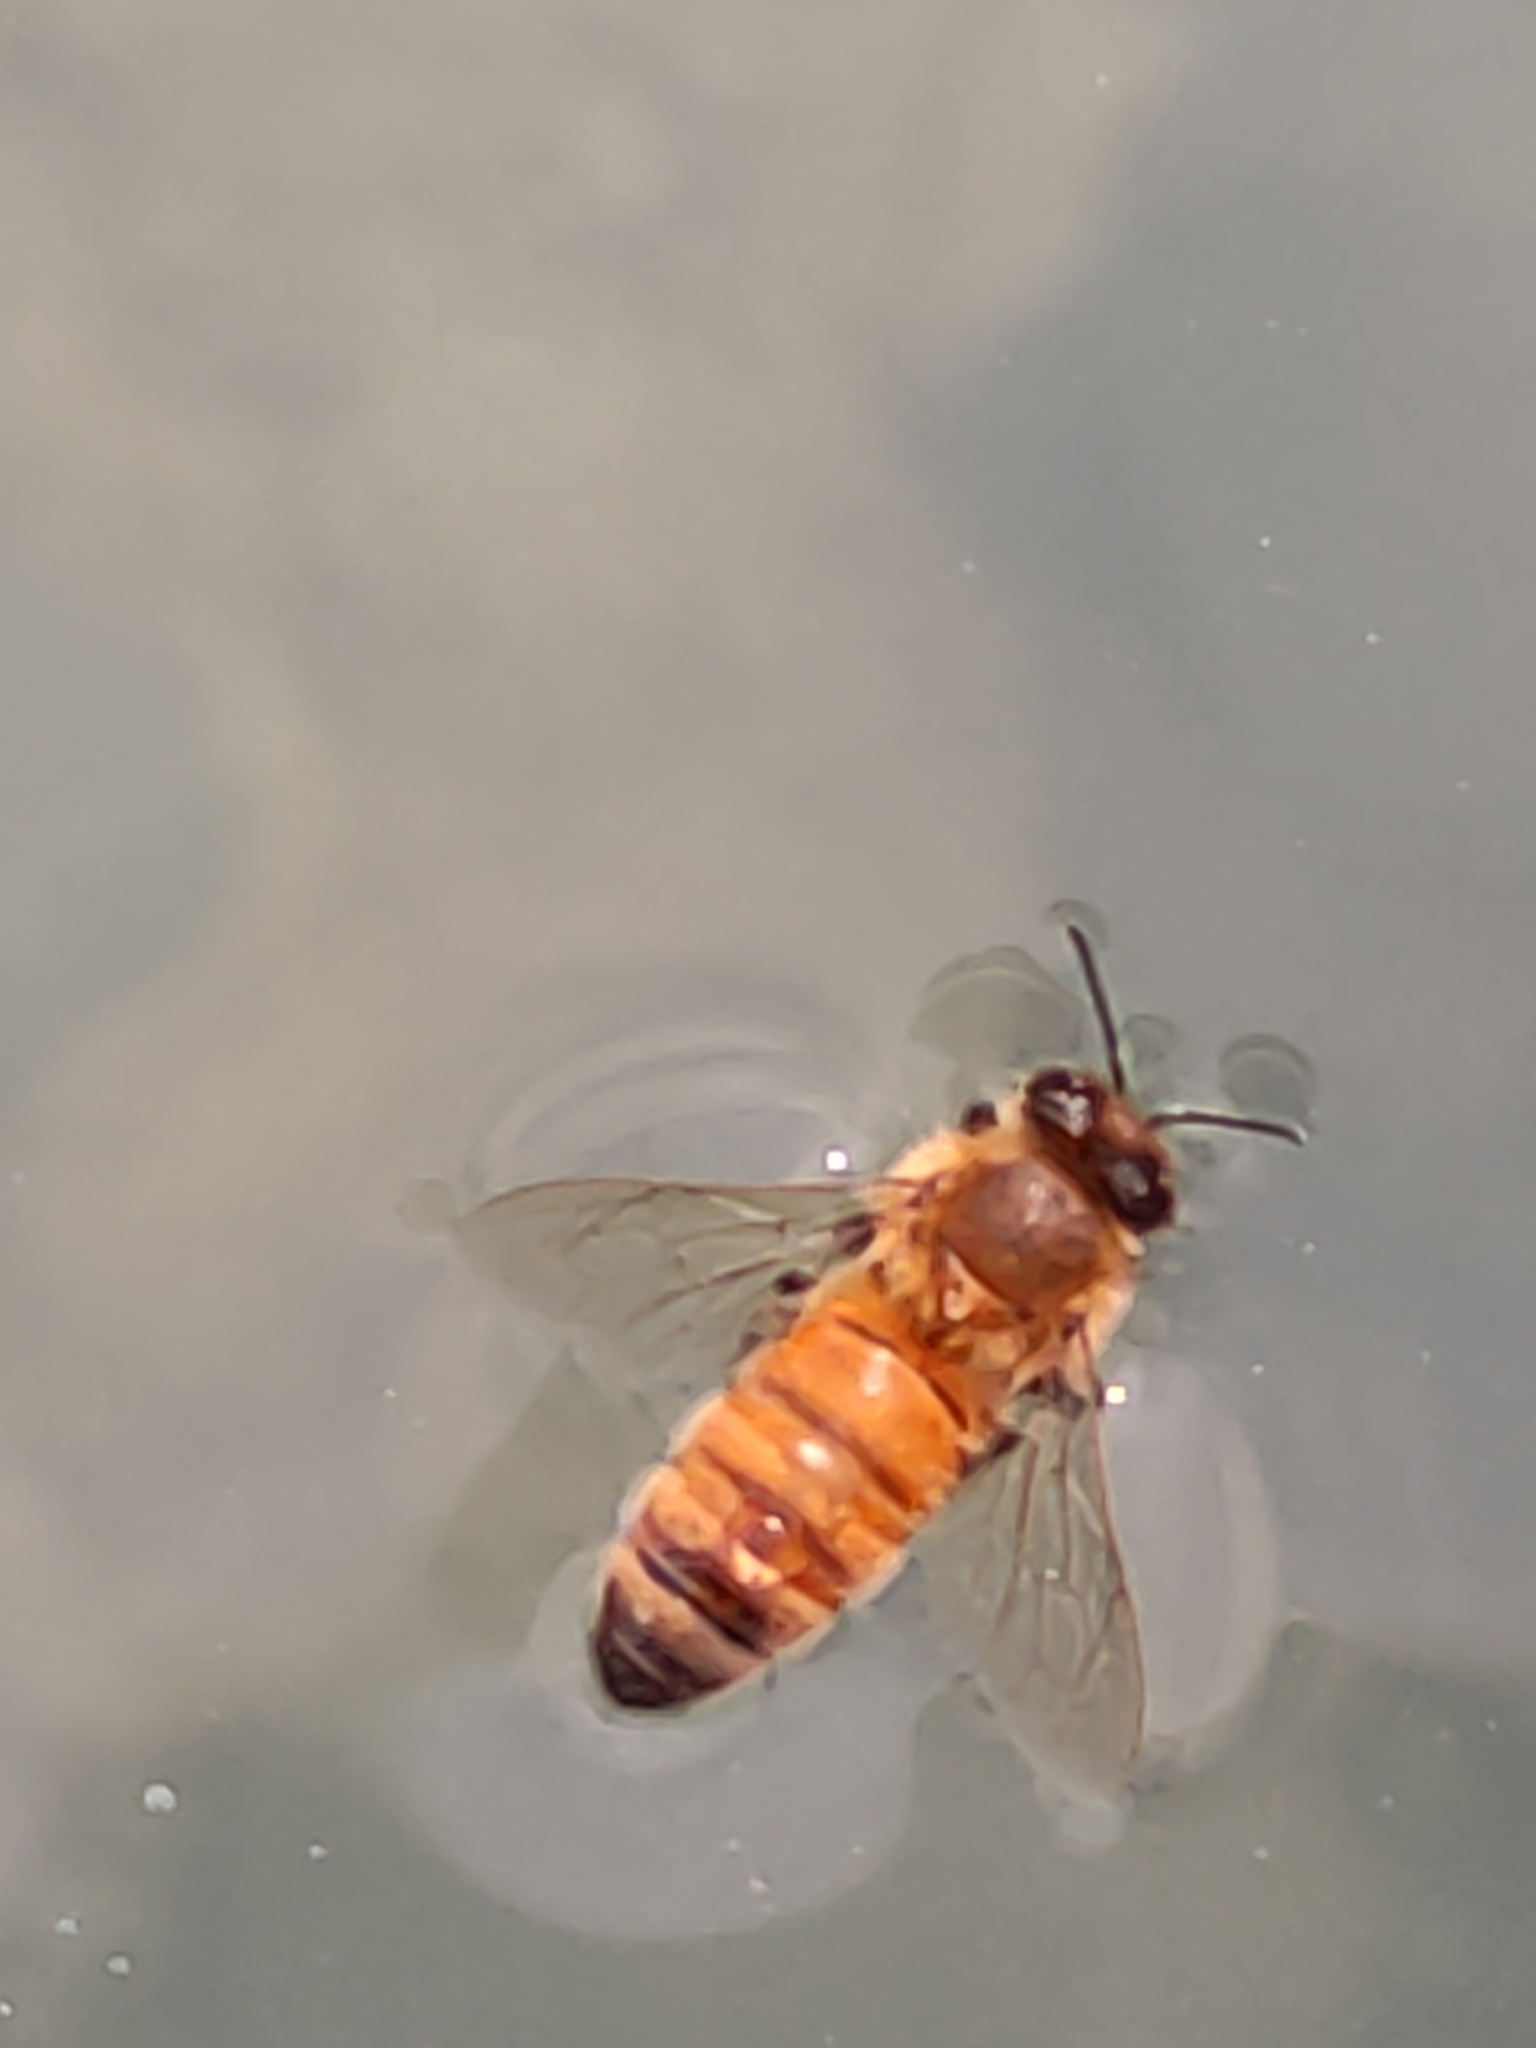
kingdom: Animalia
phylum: Arthropoda
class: Insecta
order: Hymenoptera
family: Apidae
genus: Apis
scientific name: Apis mellifera
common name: Honey bee
